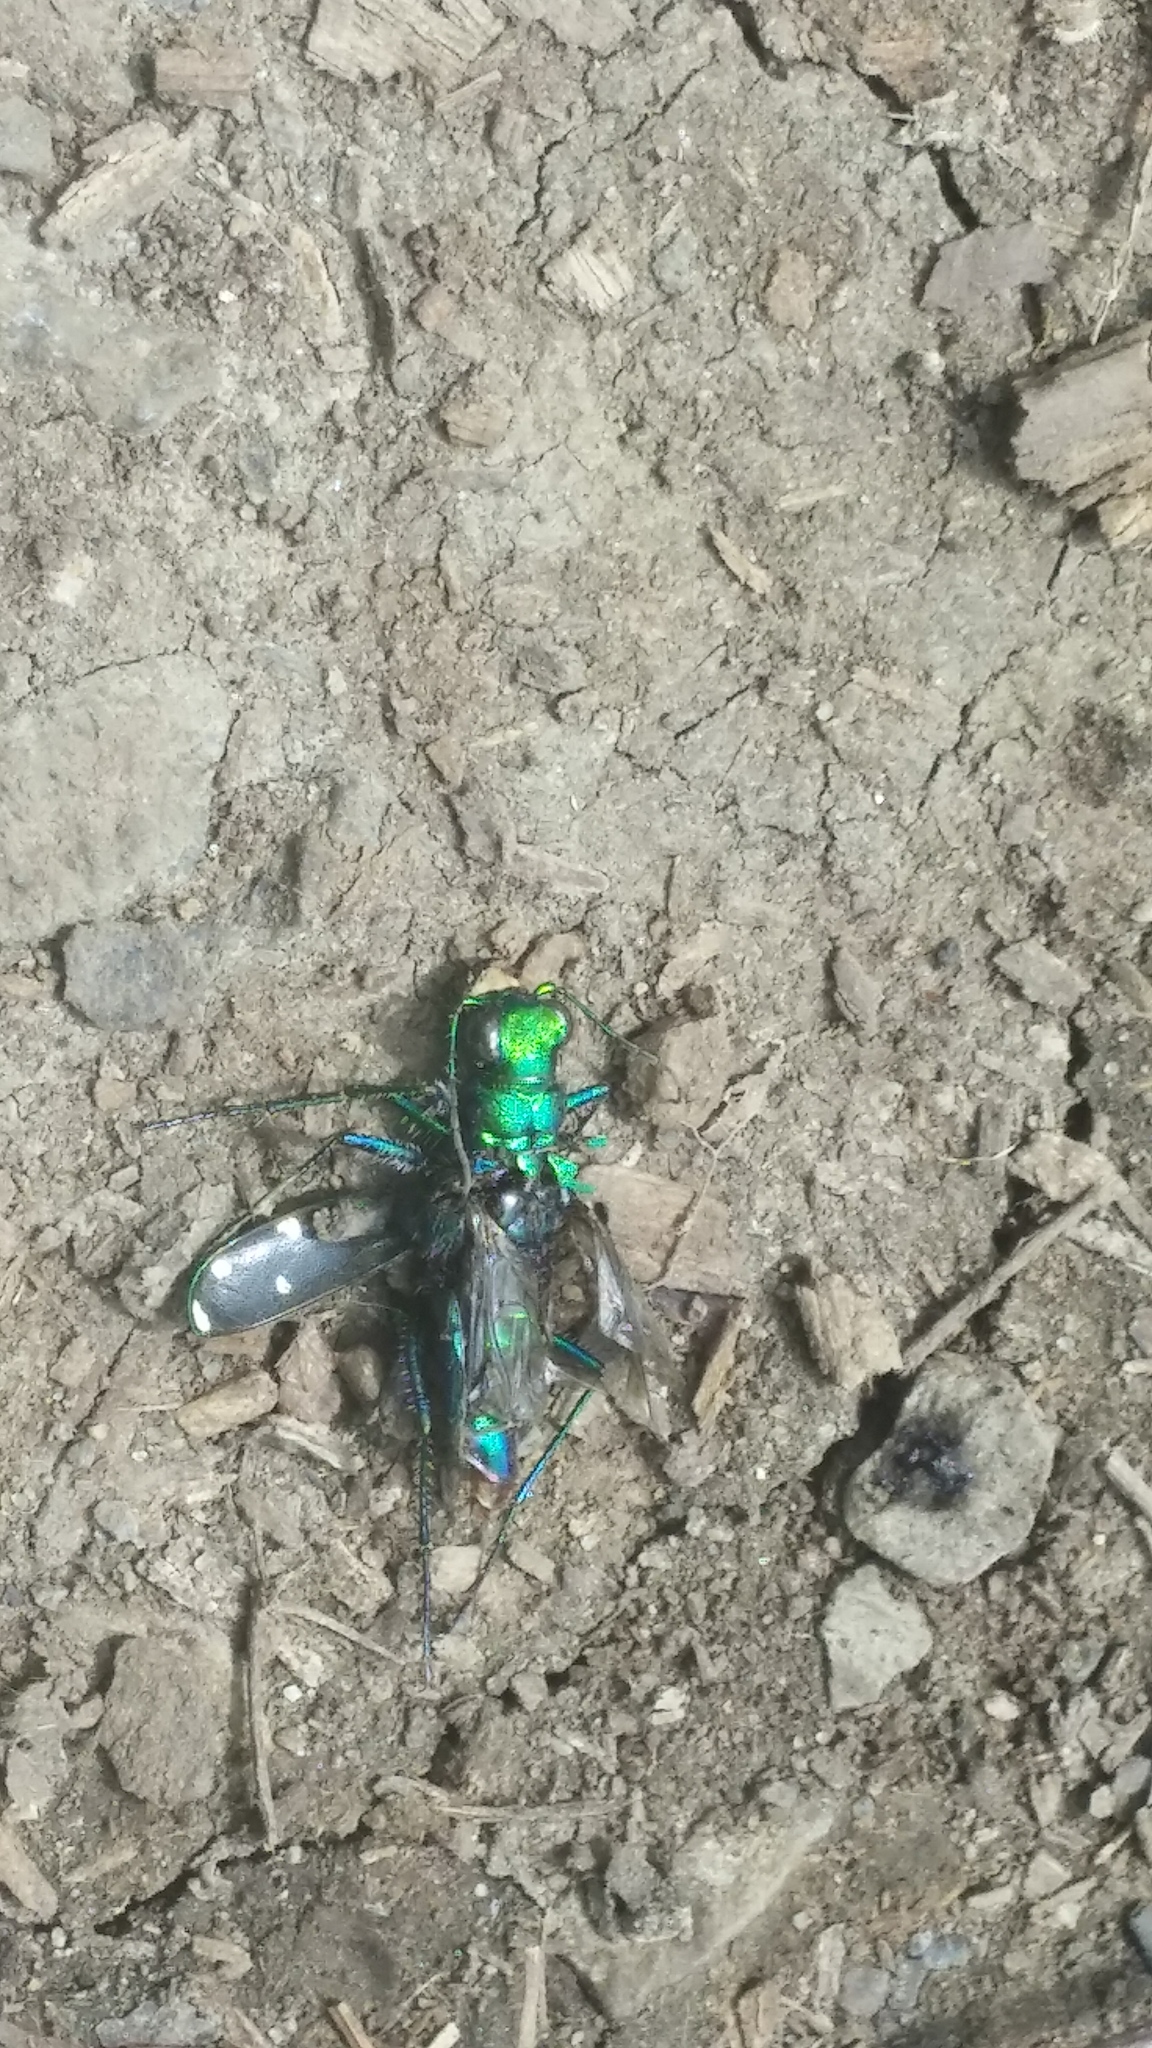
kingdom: Animalia
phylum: Arthropoda
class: Insecta
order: Coleoptera
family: Carabidae
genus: Cicindela
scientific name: Cicindela sexguttata
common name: Six-spotted tiger beetle
